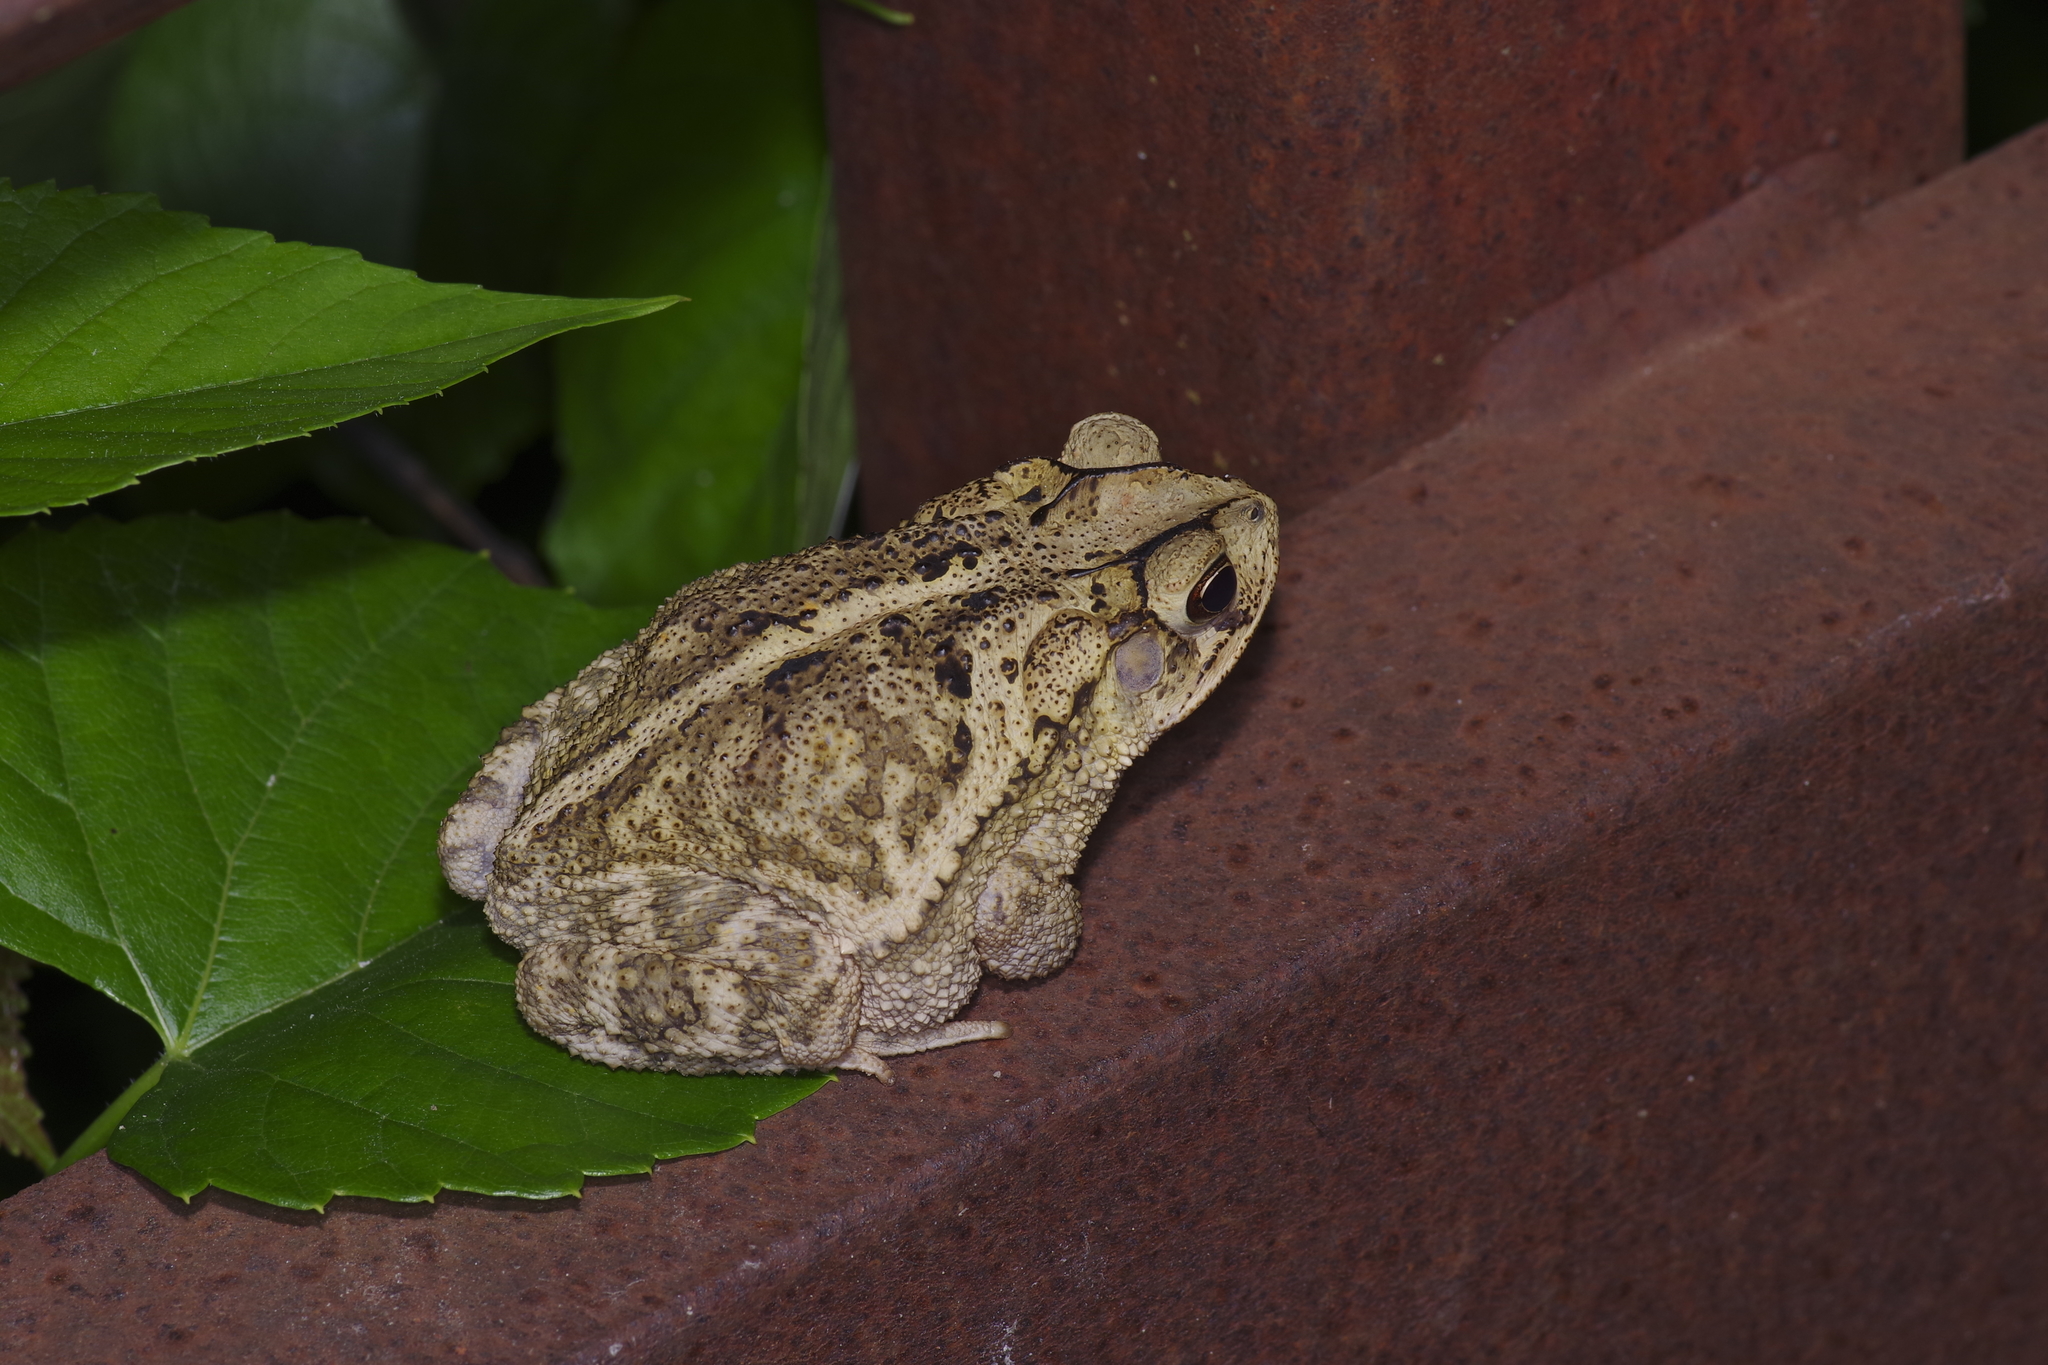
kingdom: Animalia
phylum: Chordata
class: Amphibia
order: Anura
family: Bufonidae
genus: Incilius
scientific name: Incilius nebulifer
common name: Gulf coast toad
